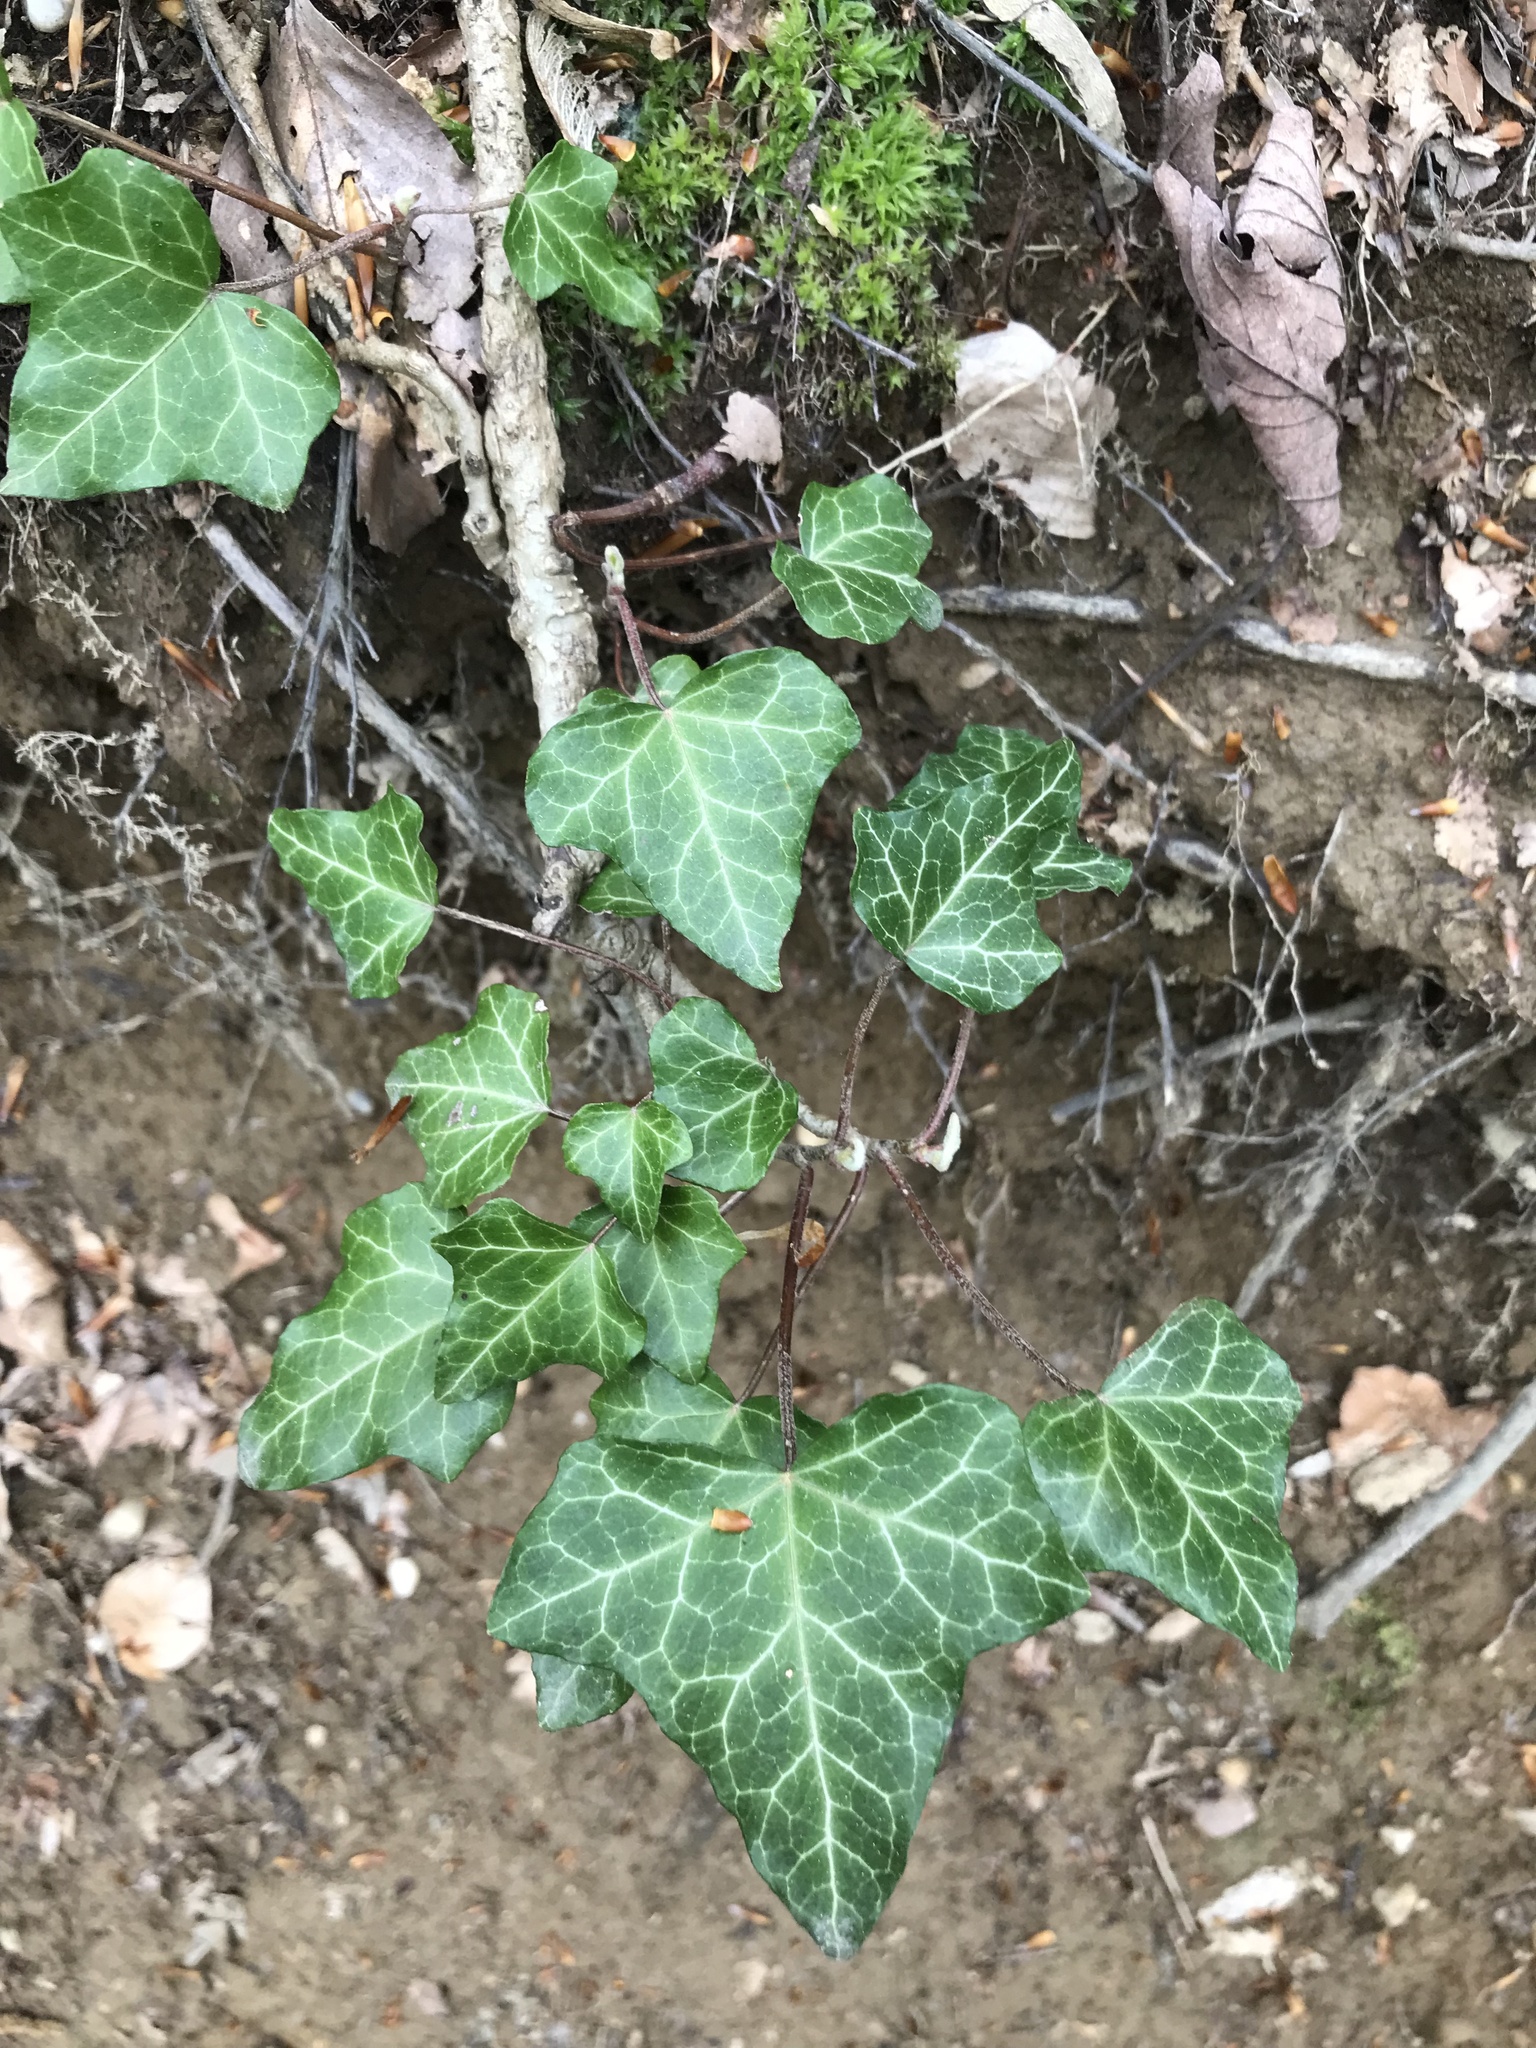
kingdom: Plantae
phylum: Tracheophyta
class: Magnoliopsida
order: Apiales
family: Araliaceae
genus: Hedera
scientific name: Hedera helix
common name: Ivy
